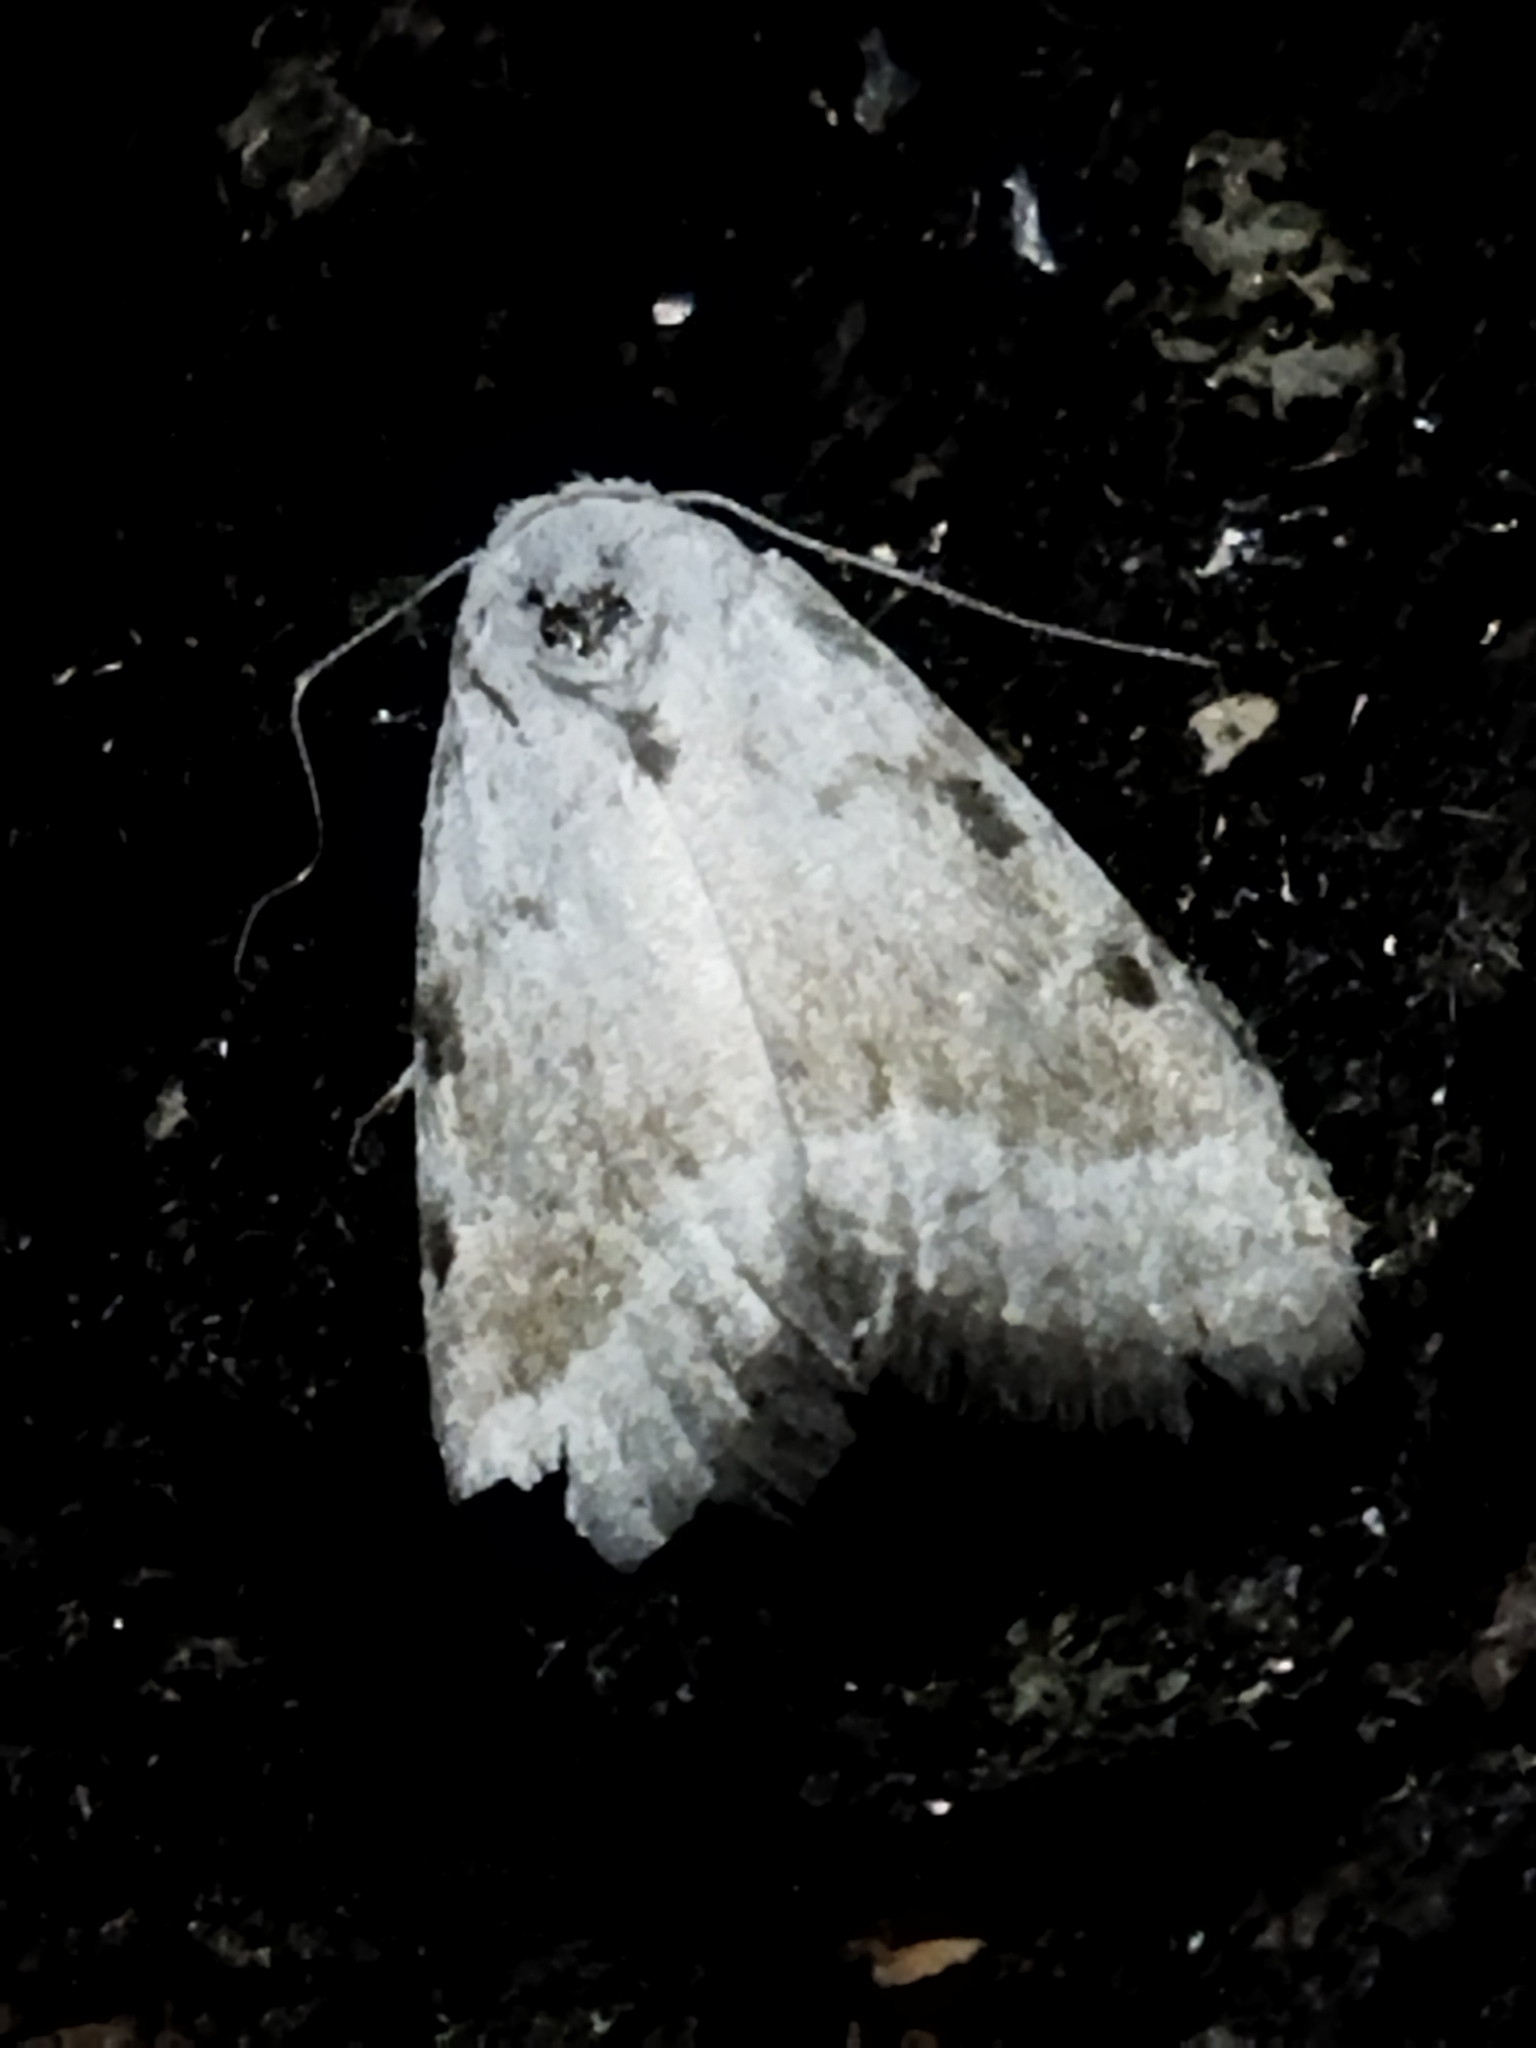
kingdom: Animalia
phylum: Arthropoda
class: Insecta
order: Lepidoptera
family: Nolidae
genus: Nola
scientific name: Nola aerugula
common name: Scarce black arches
